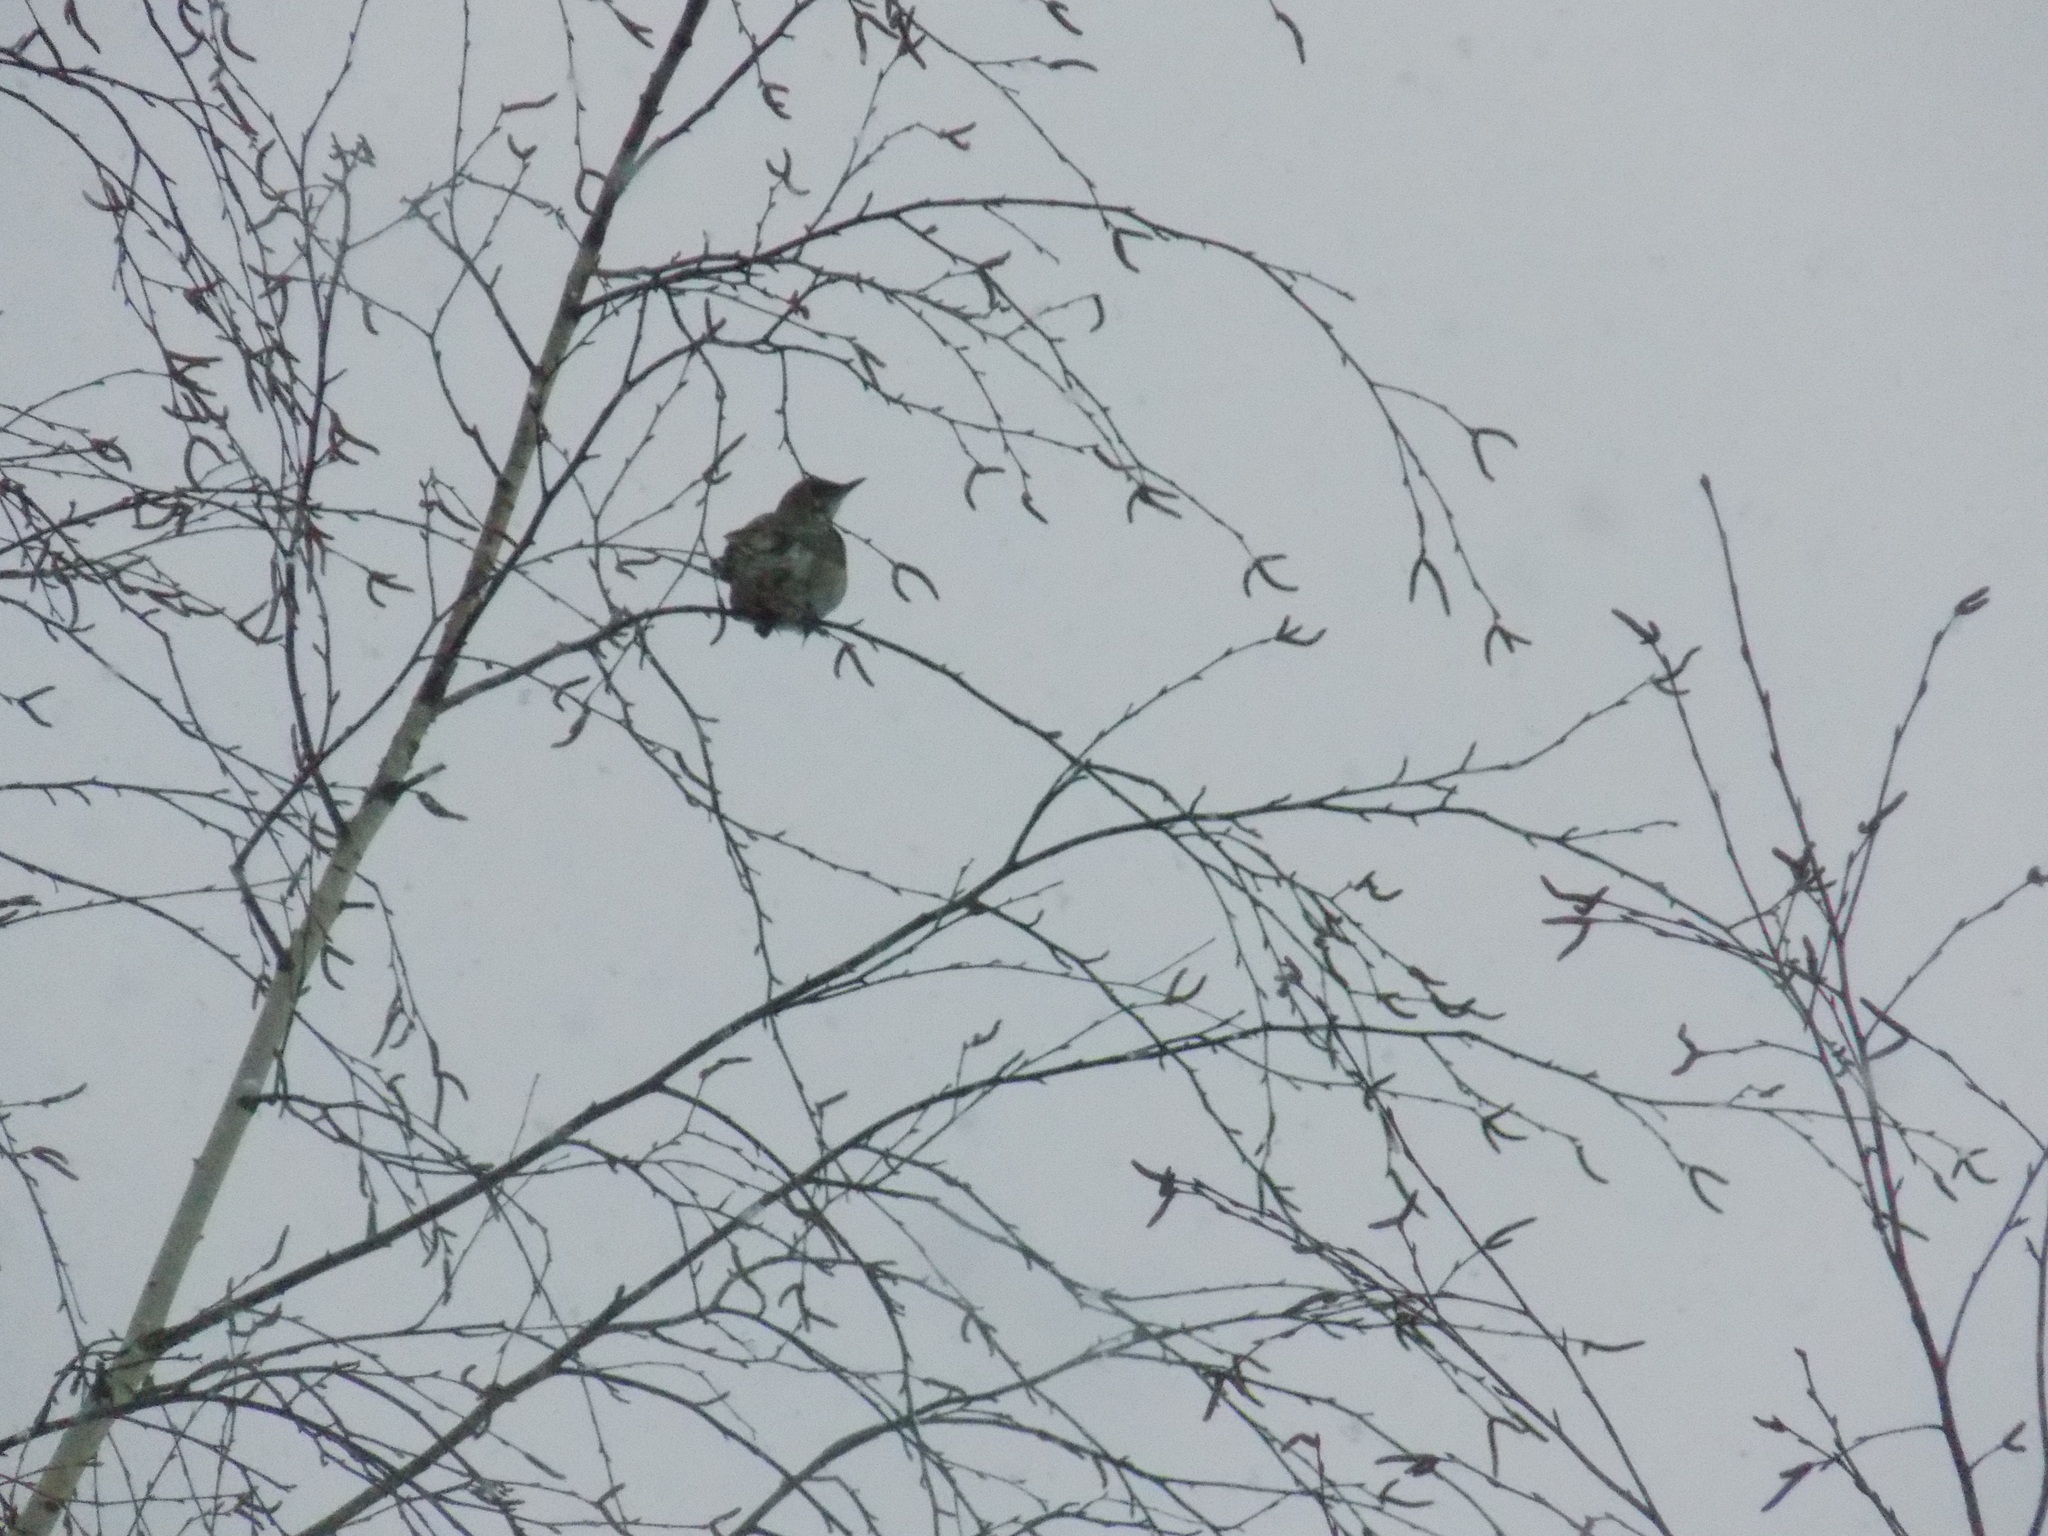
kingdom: Animalia
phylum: Chordata
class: Aves
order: Passeriformes
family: Turdidae
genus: Turdus
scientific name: Turdus atrogularis
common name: Black-throated thrush
